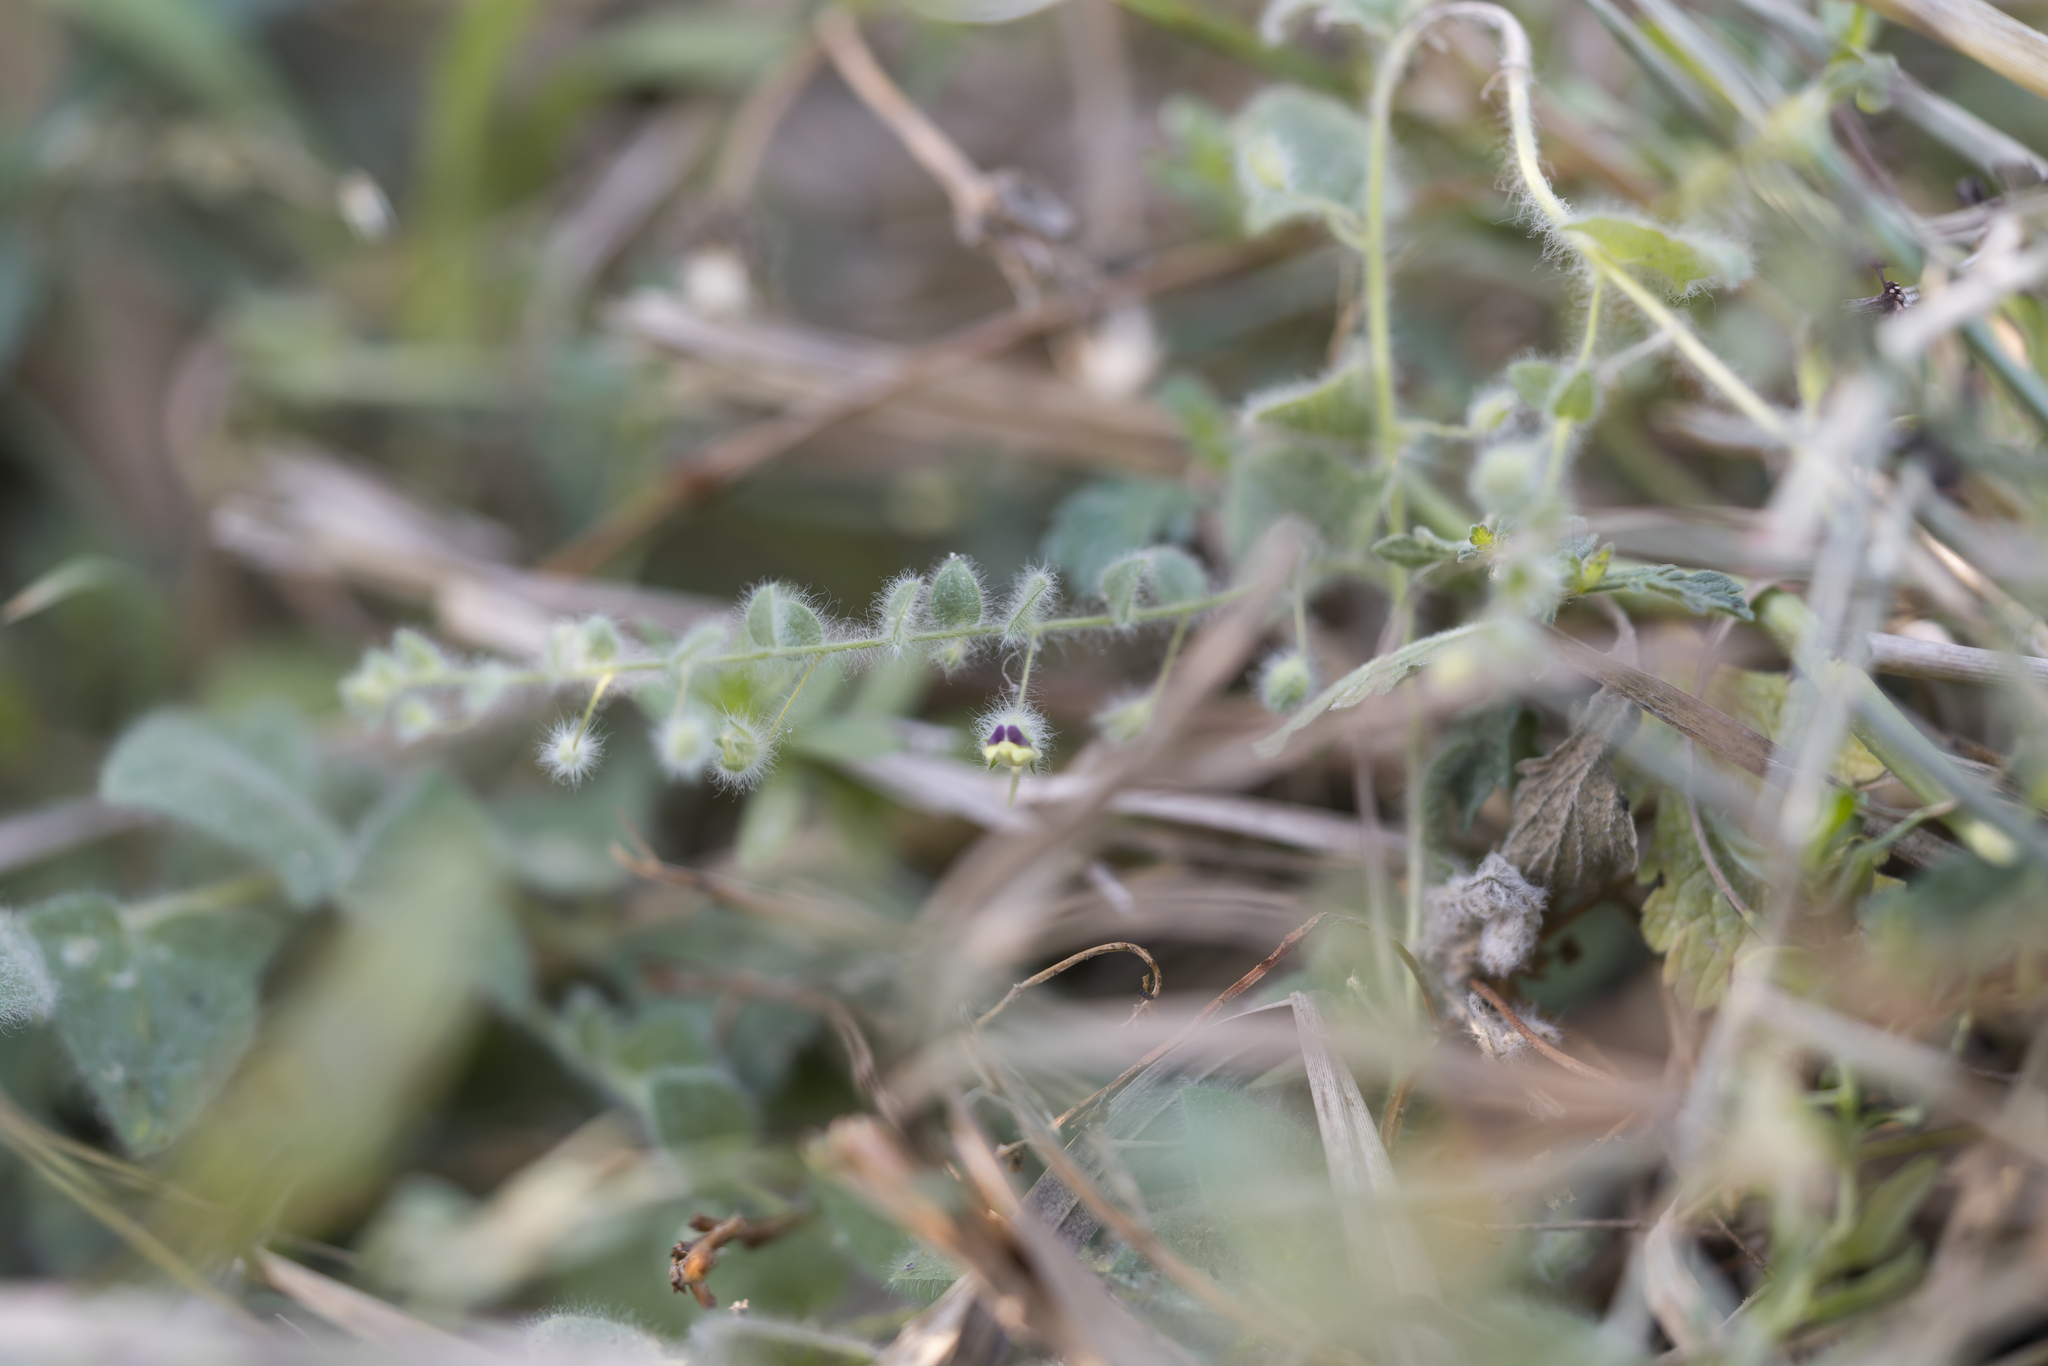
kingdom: Plantae
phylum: Tracheophyta
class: Magnoliopsida
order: Lamiales
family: Plantaginaceae
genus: Kickxia
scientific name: Kickxia elatine
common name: Sharp-leaved fluellen
